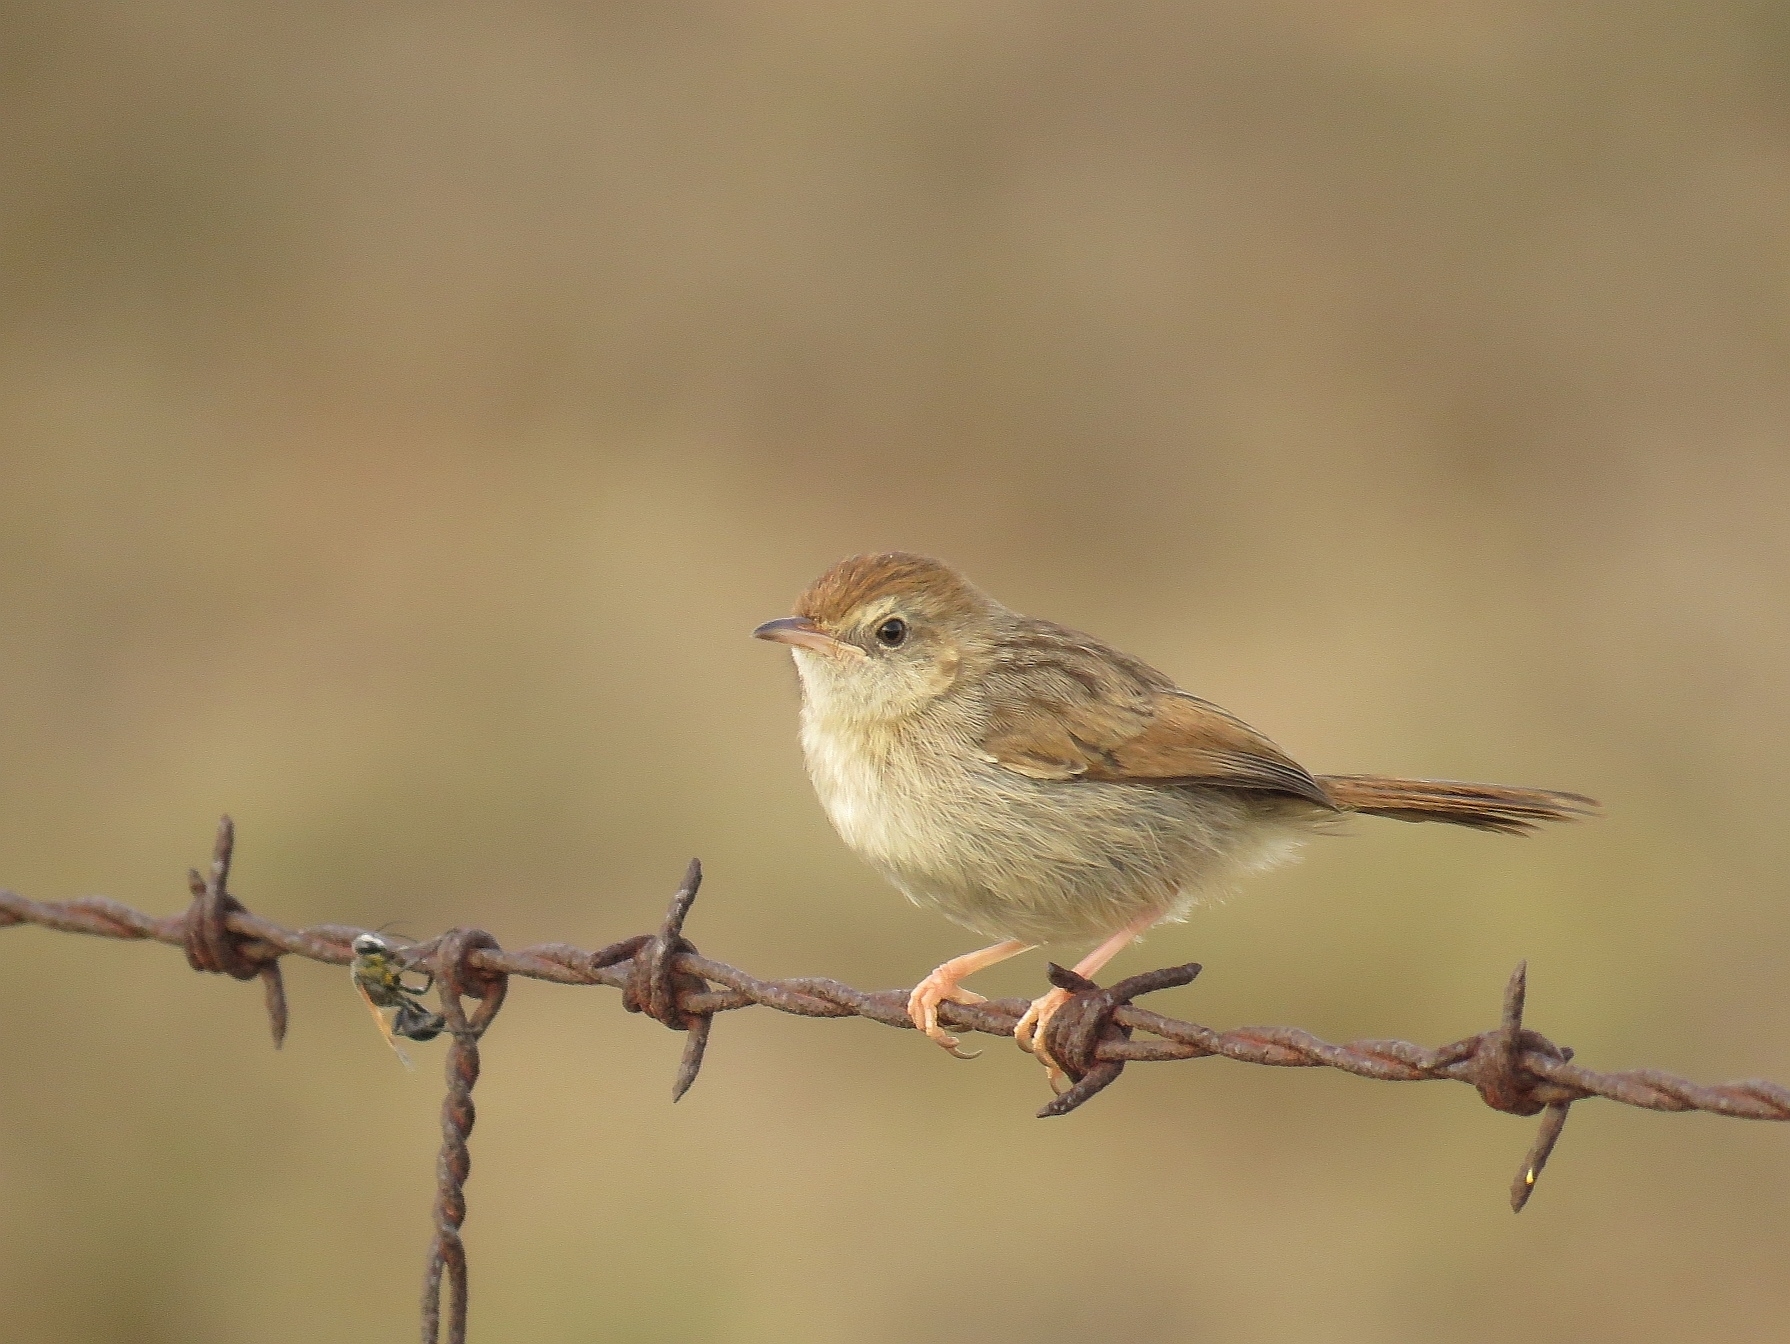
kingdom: Animalia
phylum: Chordata
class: Aves
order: Passeriformes
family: Cisticolidae
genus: Cisticola
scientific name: Cisticola subruficapilla
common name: Grey-backed cisticola
